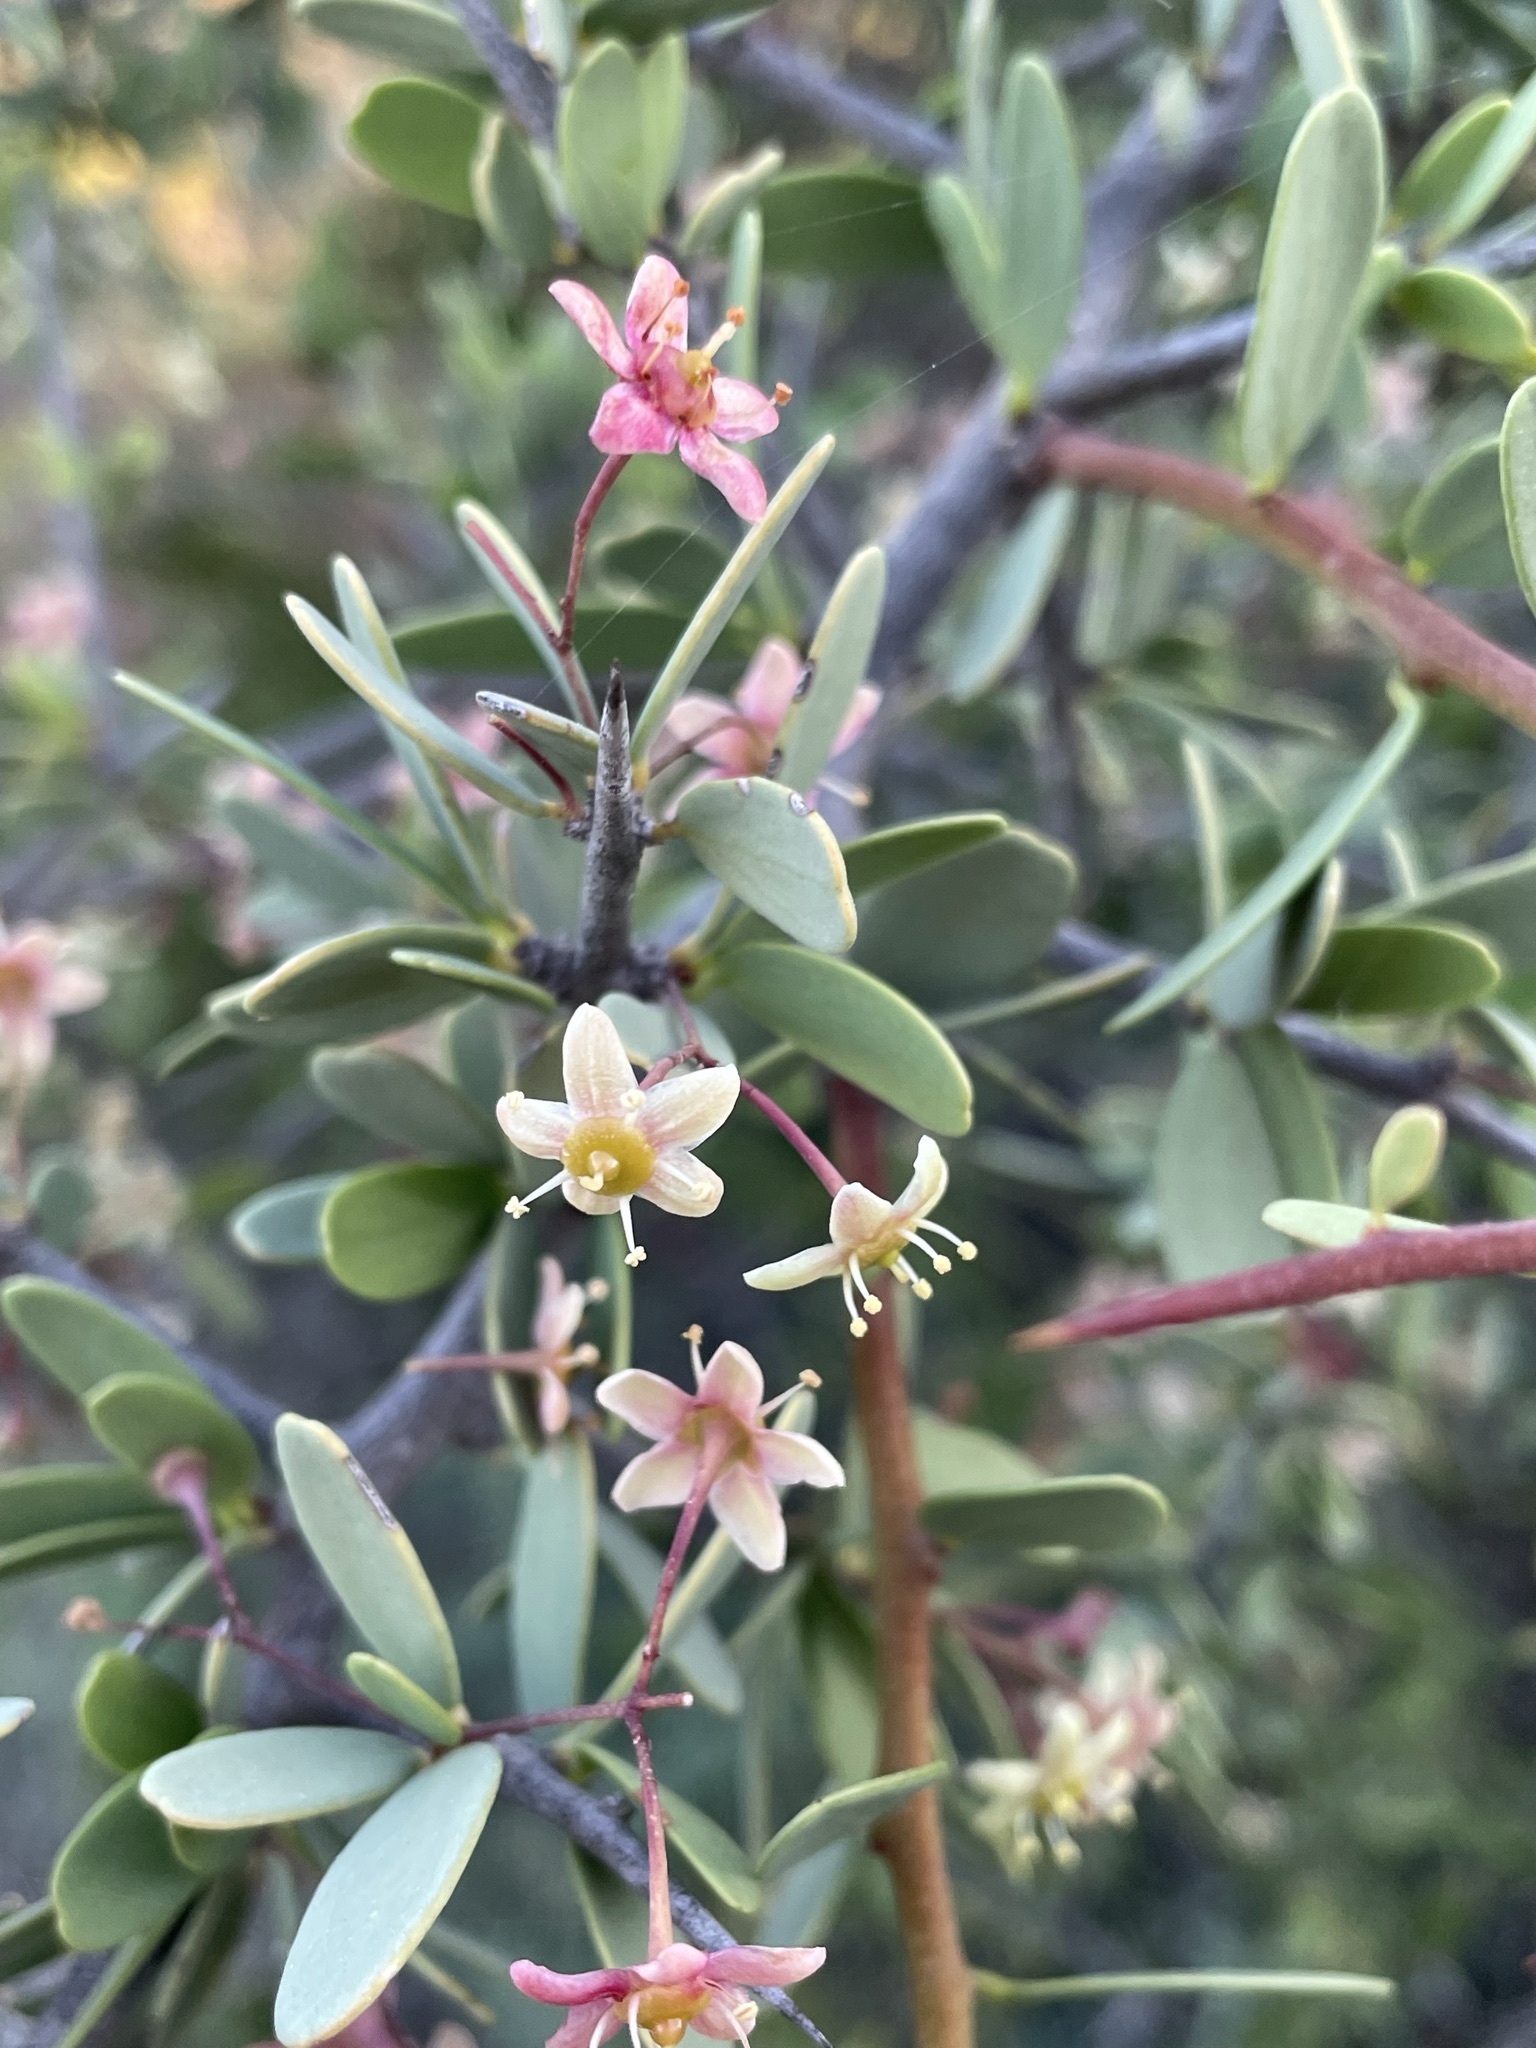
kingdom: Plantae
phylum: Tracheophyta
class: Magnoliopsida
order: Celastrales
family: Celastraceae
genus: Gloveria
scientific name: Gloveria integrifolia
